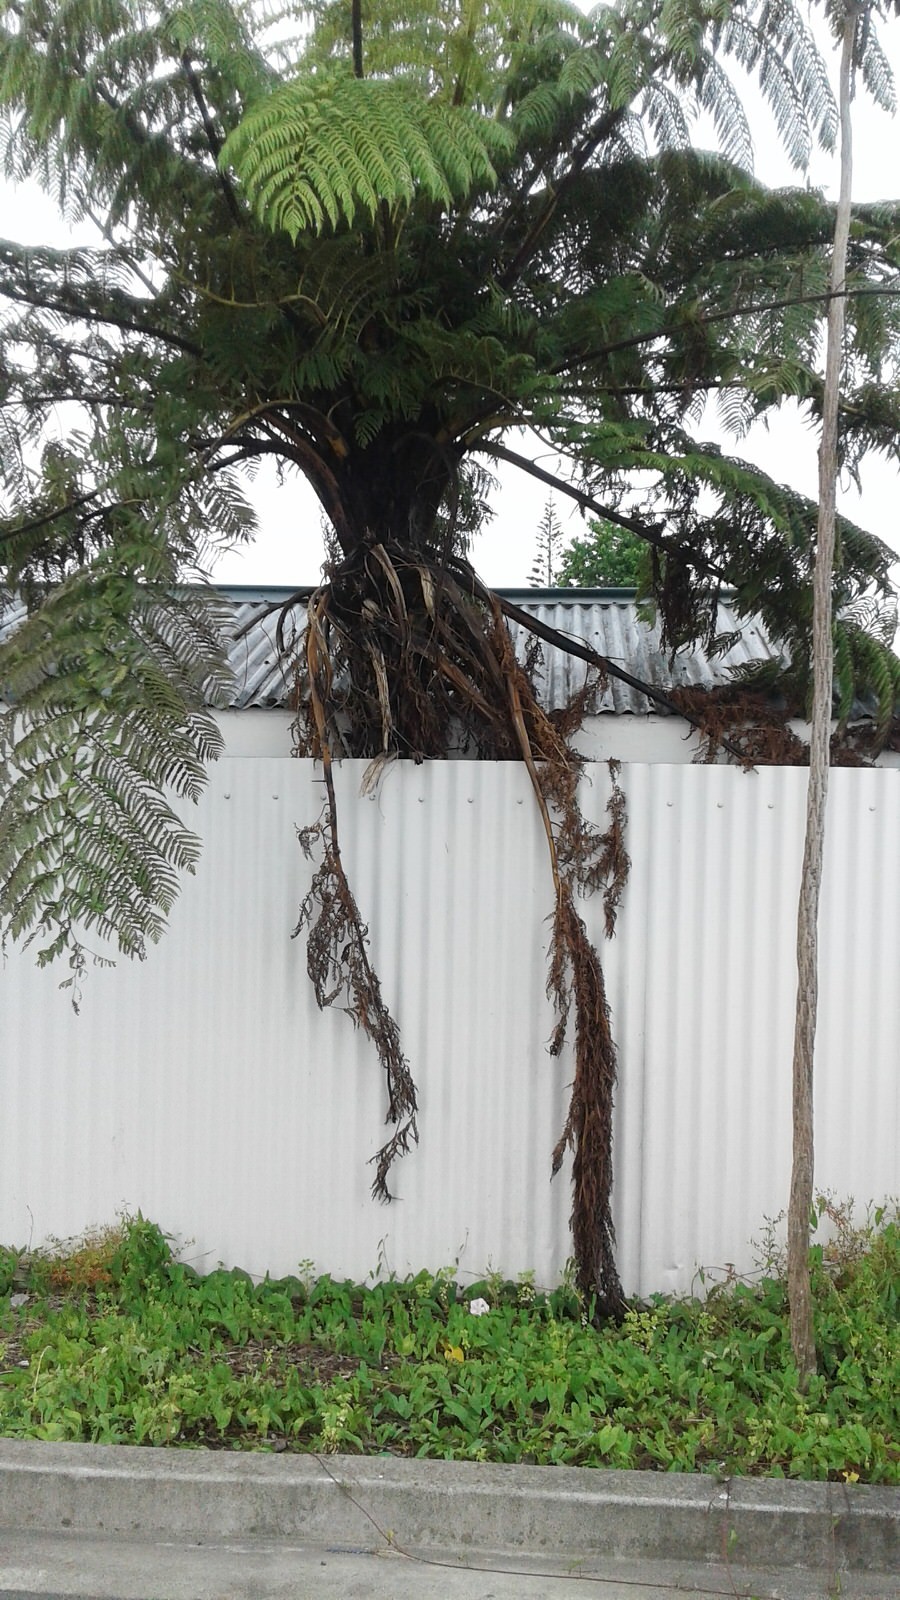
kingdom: Plantae
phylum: Tracheophyta
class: Polypodiopsida
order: Cyatheales
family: Cyatheaceae
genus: Sphaeropteris
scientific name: Sphaeropteris medullaris
